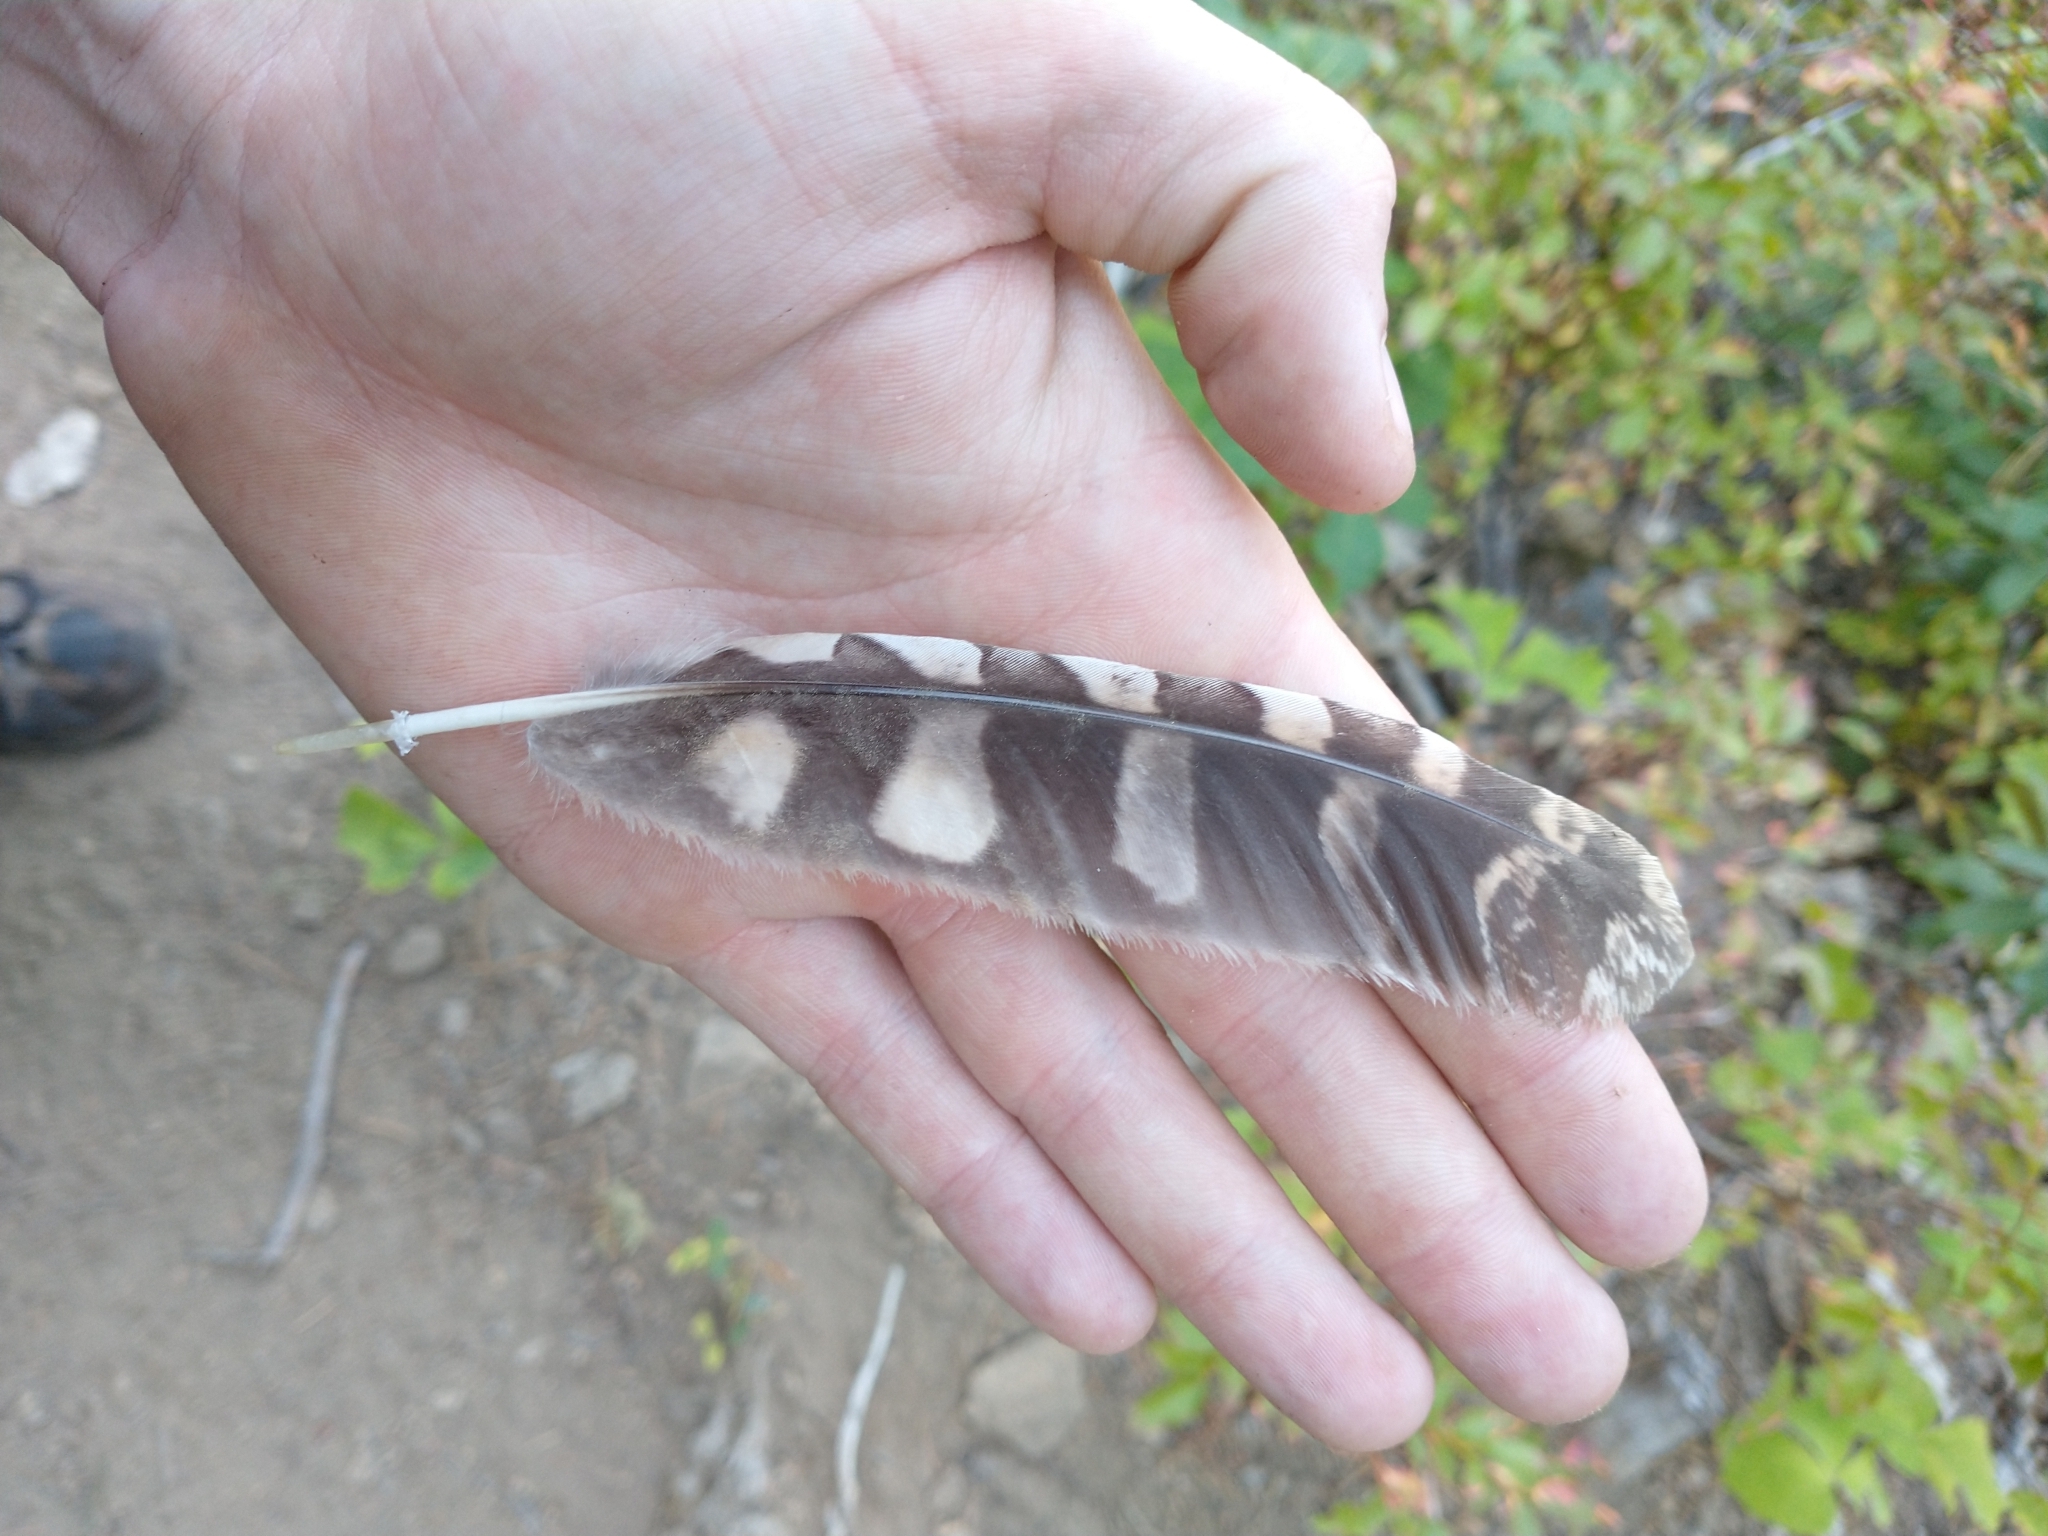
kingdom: Animalia
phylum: Chordata
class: Aves
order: Strigiformes
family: Strigidae
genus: Megascops
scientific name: Megascops kennicottii
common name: Western screech-owl
